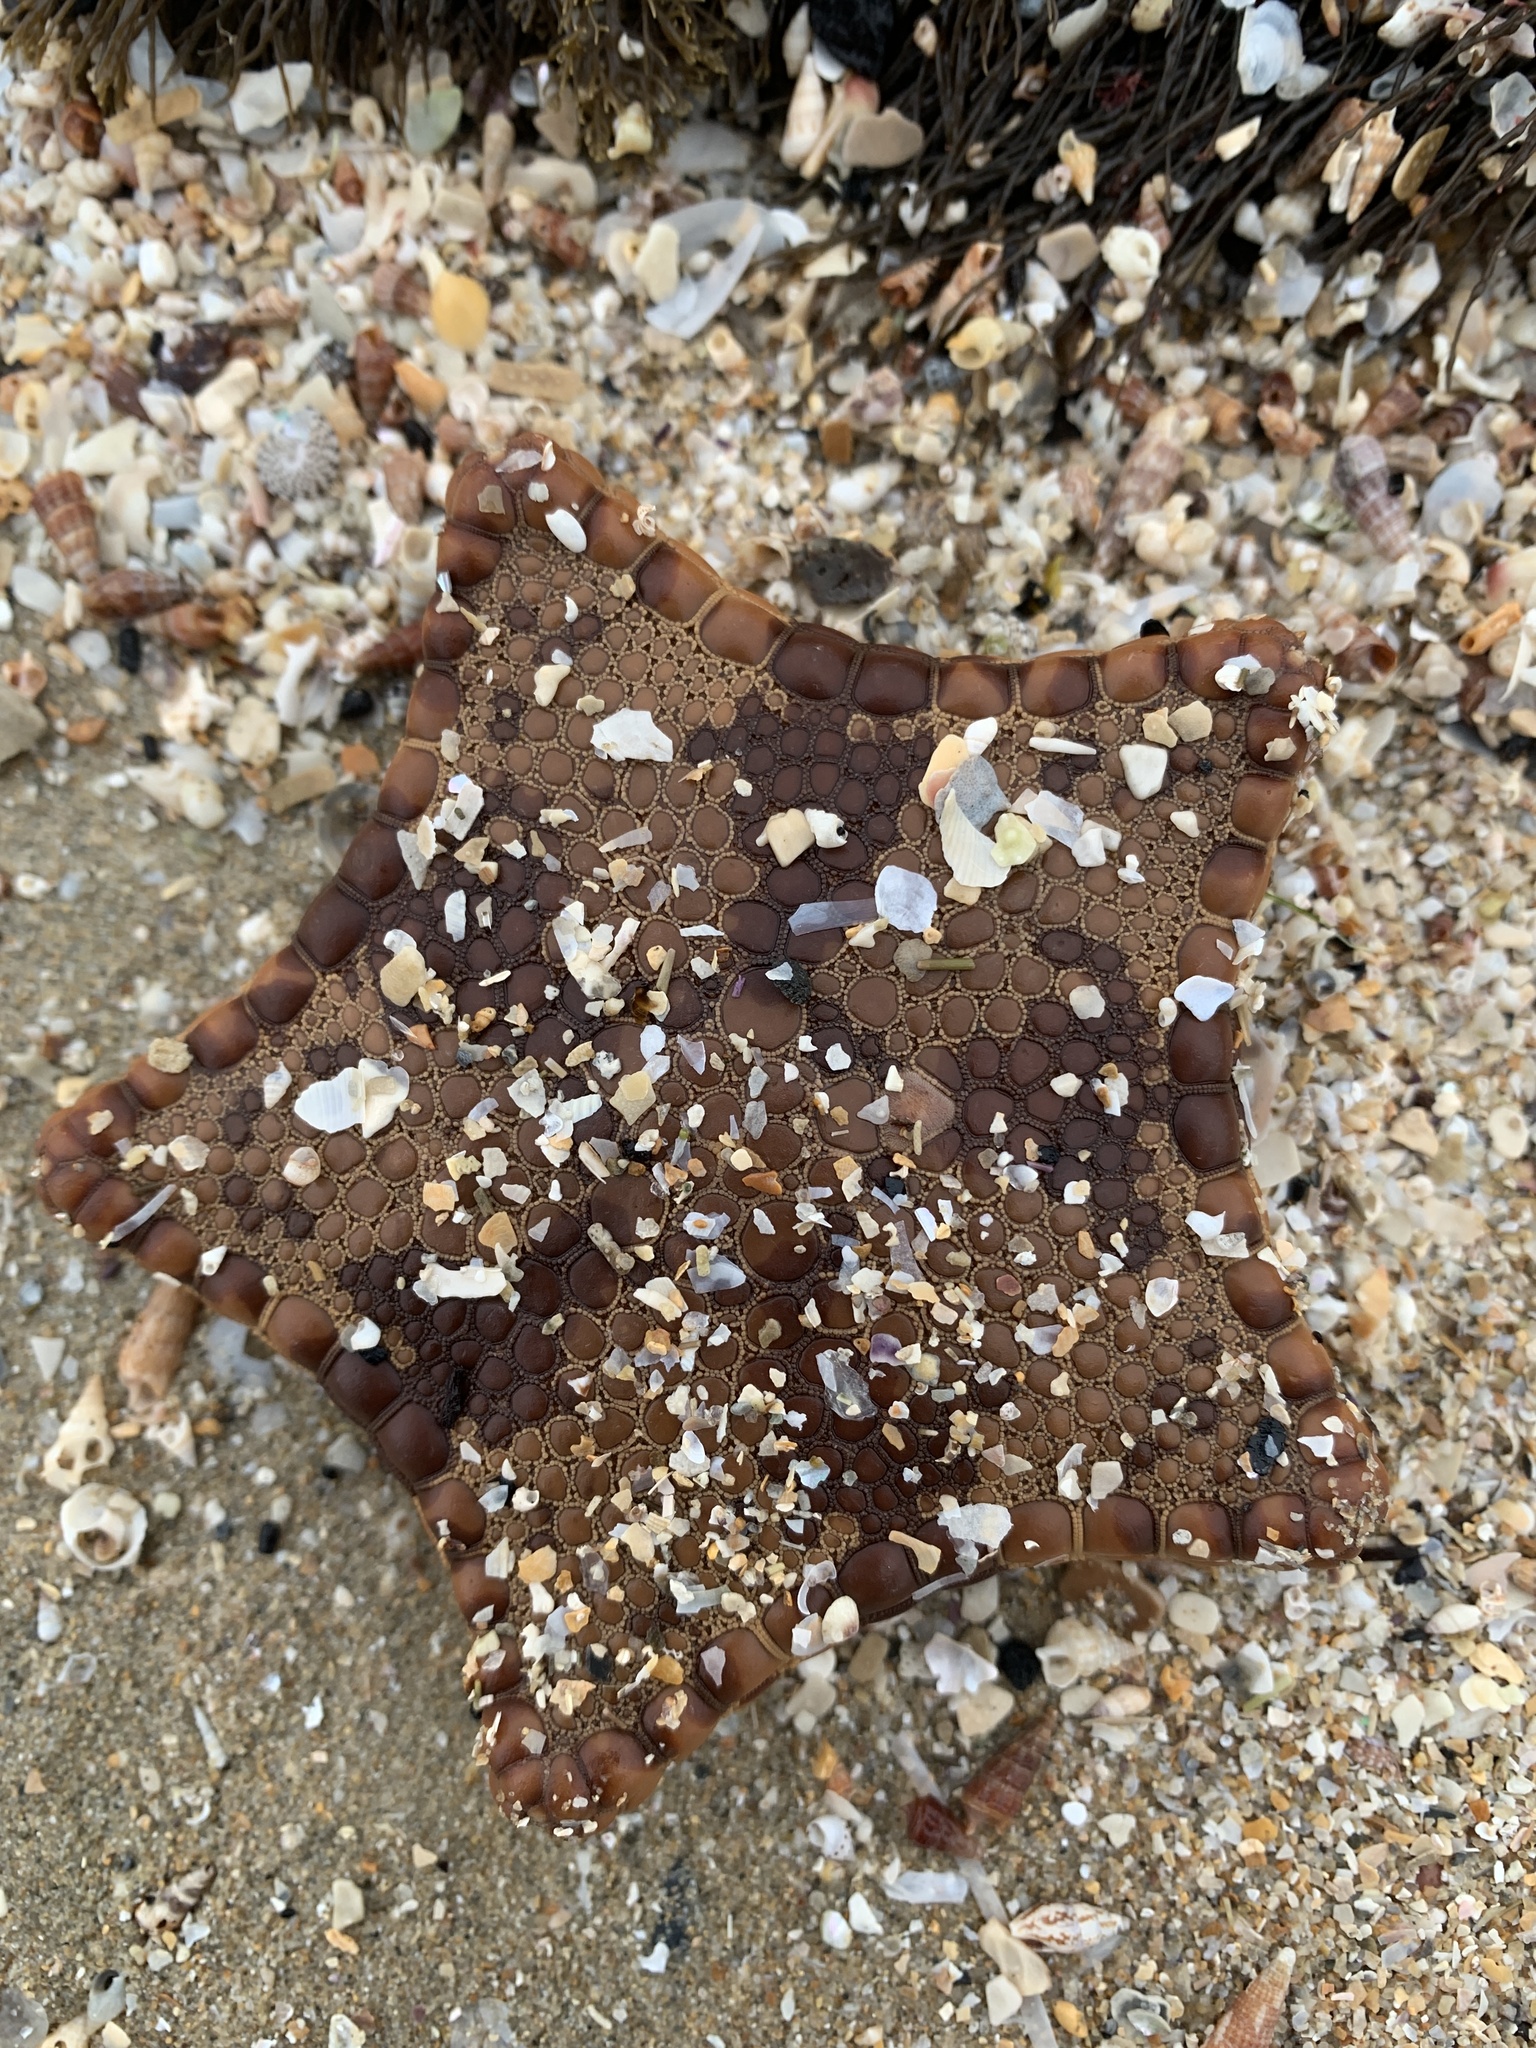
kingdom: Animalia
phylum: Echinodermata
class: Asteroidea
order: Valvatida
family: Goniasteridae
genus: Tosia
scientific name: Tosia magnifica
